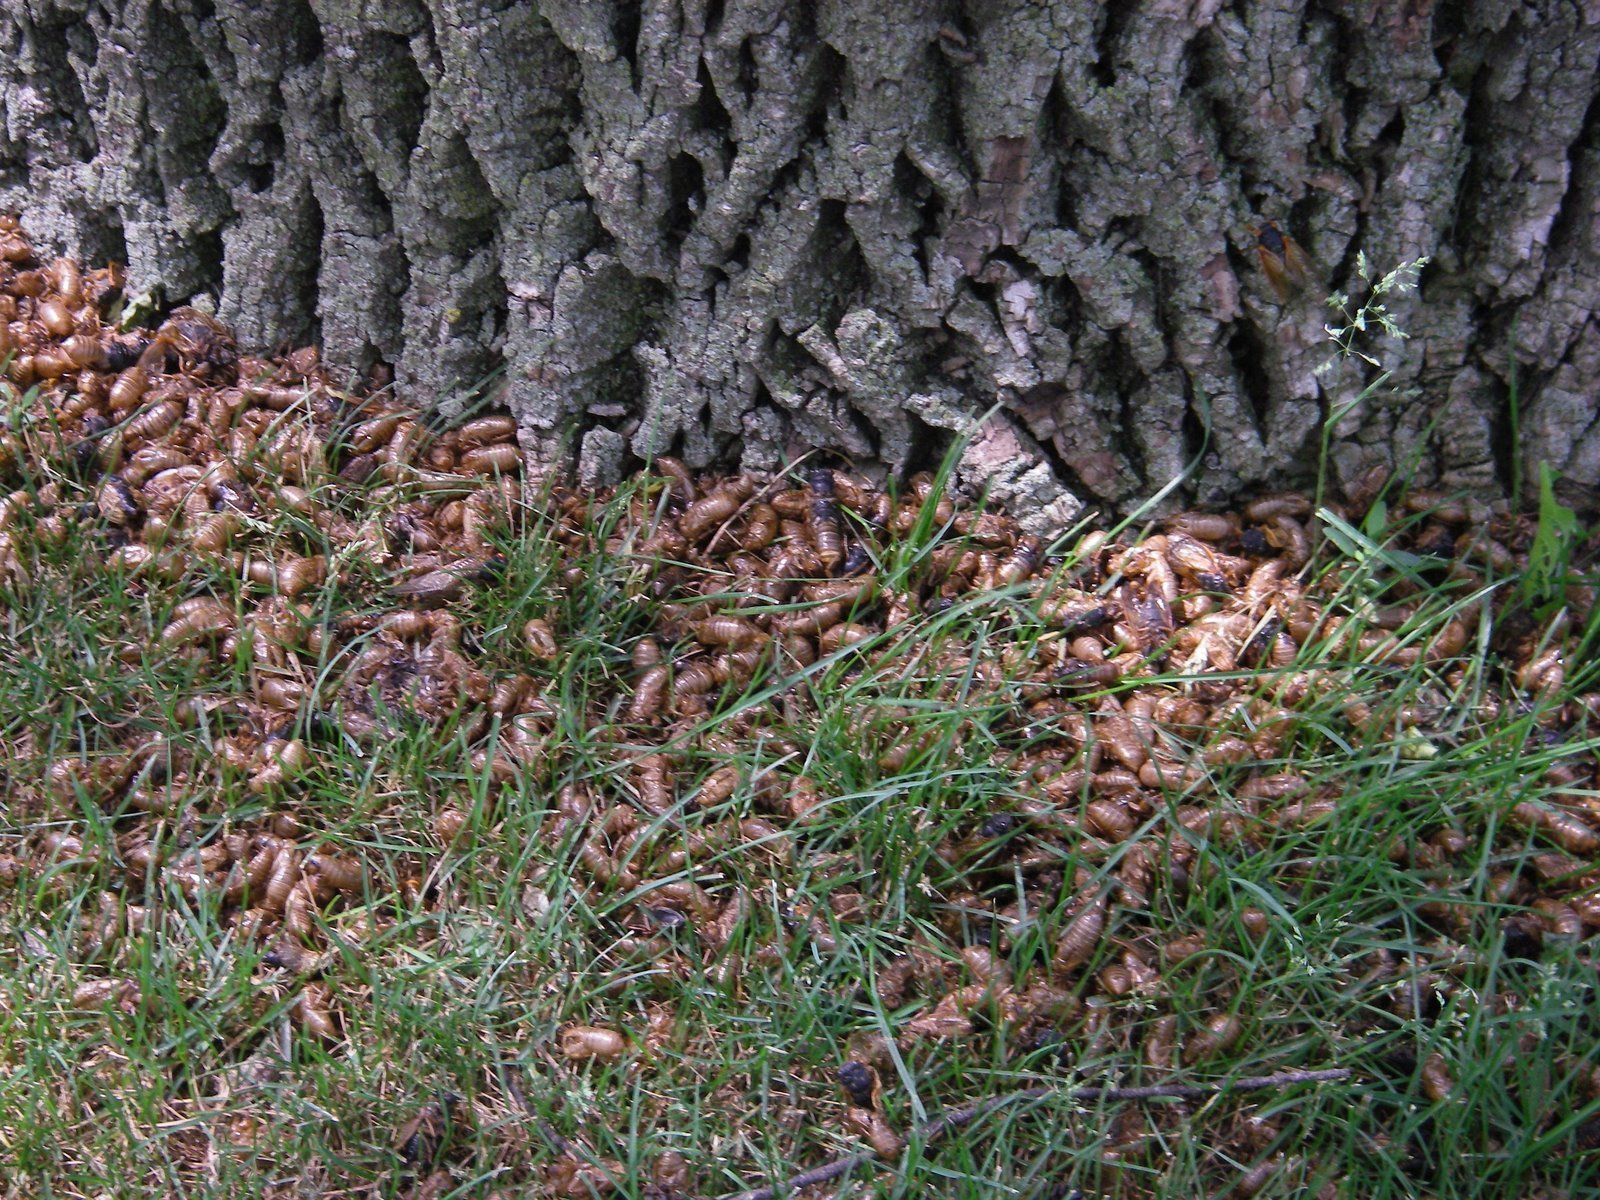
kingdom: Animalia
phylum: Arthropoda
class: Insecta
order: Hemiptera
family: Cicadidae
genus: Magicicada
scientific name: Magicicada
